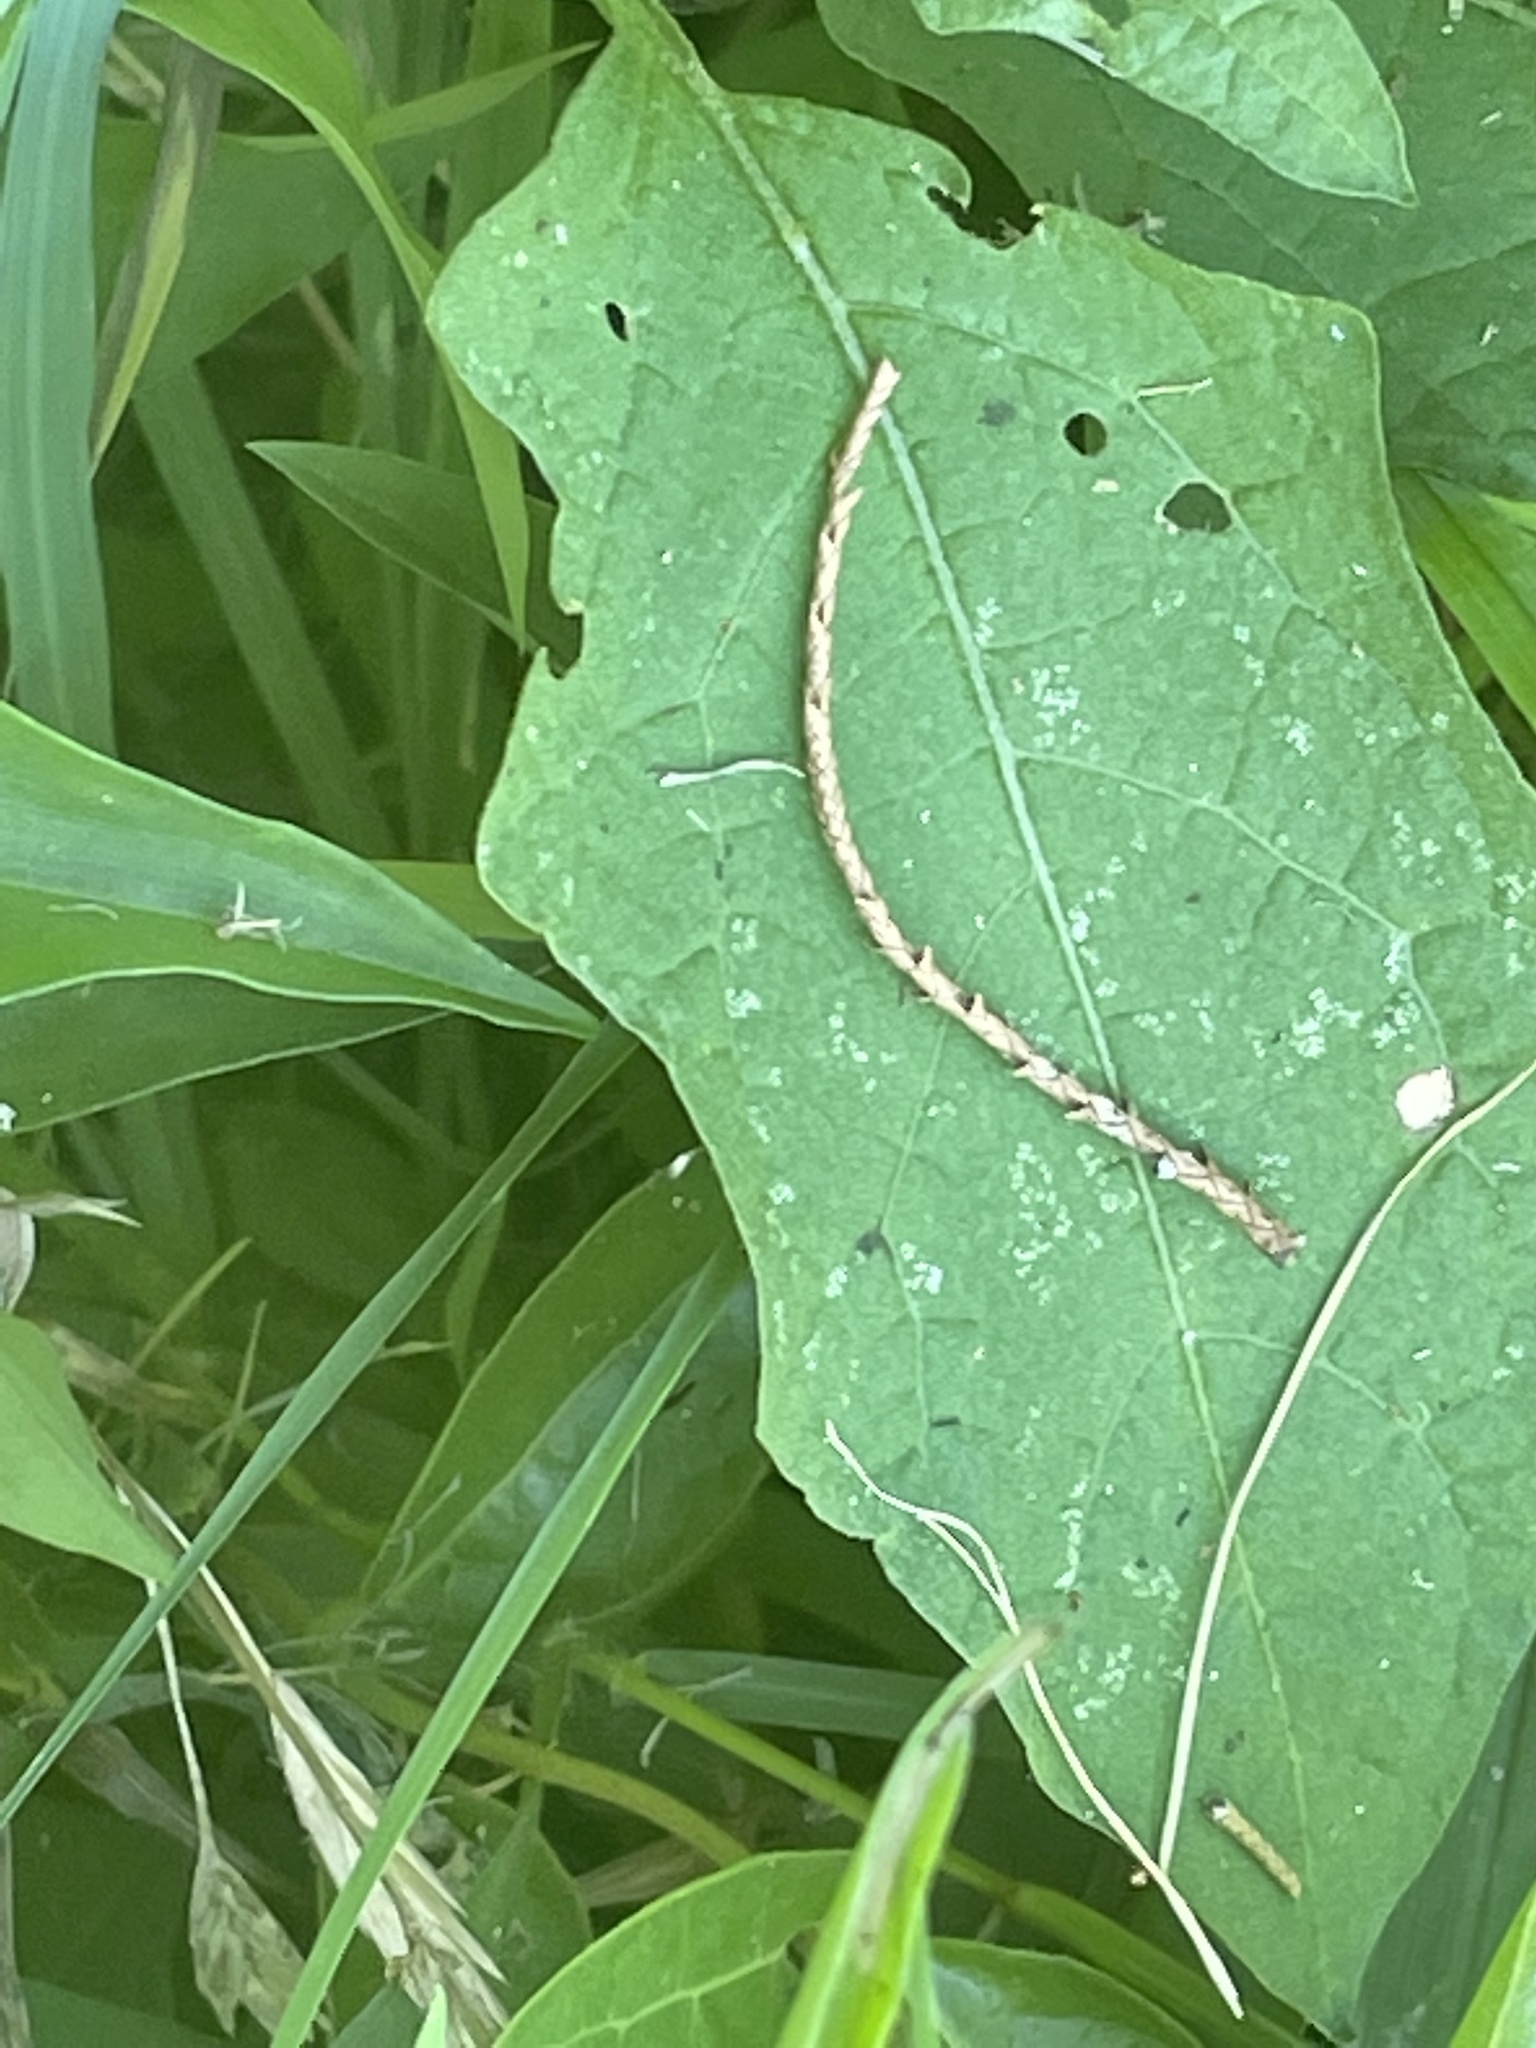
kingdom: Plantae
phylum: Tracheophyta
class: Magnoliopsida
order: Solanales
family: Solanaceae
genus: Solanum
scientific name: Solanum carolinense
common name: Horse-nettle
